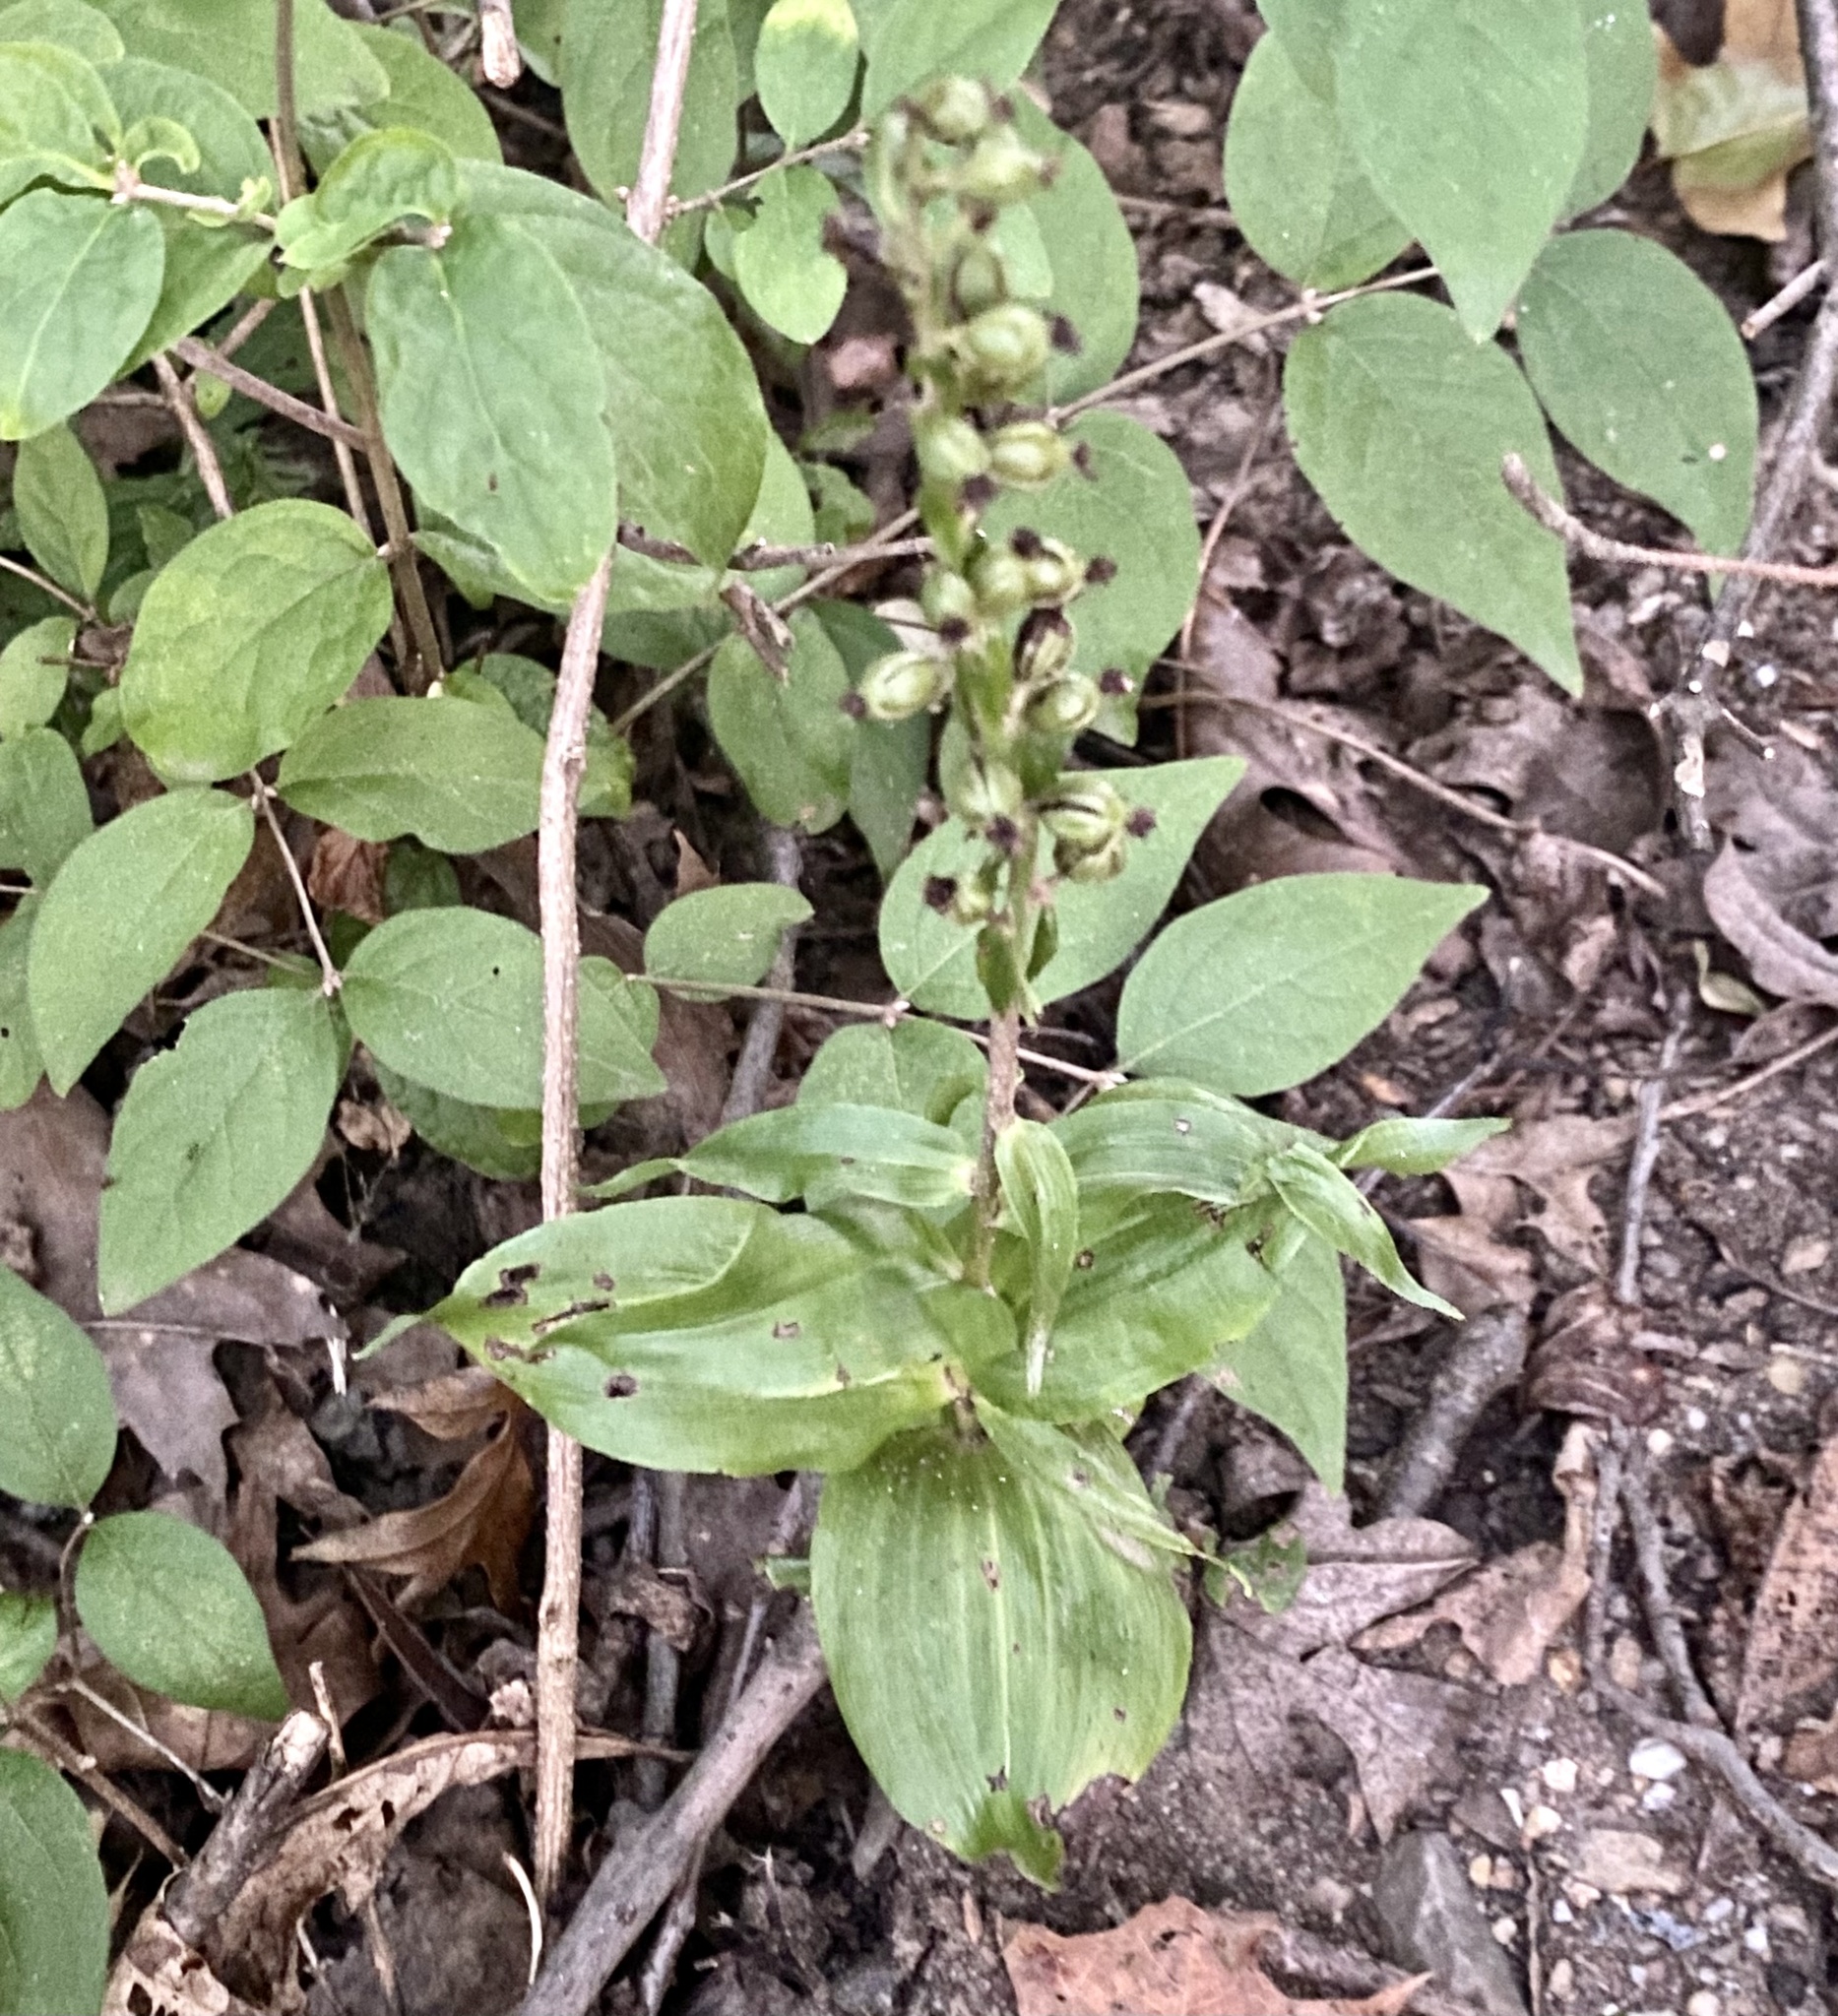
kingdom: Plantae
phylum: Tracheophyta
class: Liliopsida
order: Asparagales
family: Orchidaceae
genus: Epipactis
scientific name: Epipactis helleborine
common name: Broad-leaved helleborine
